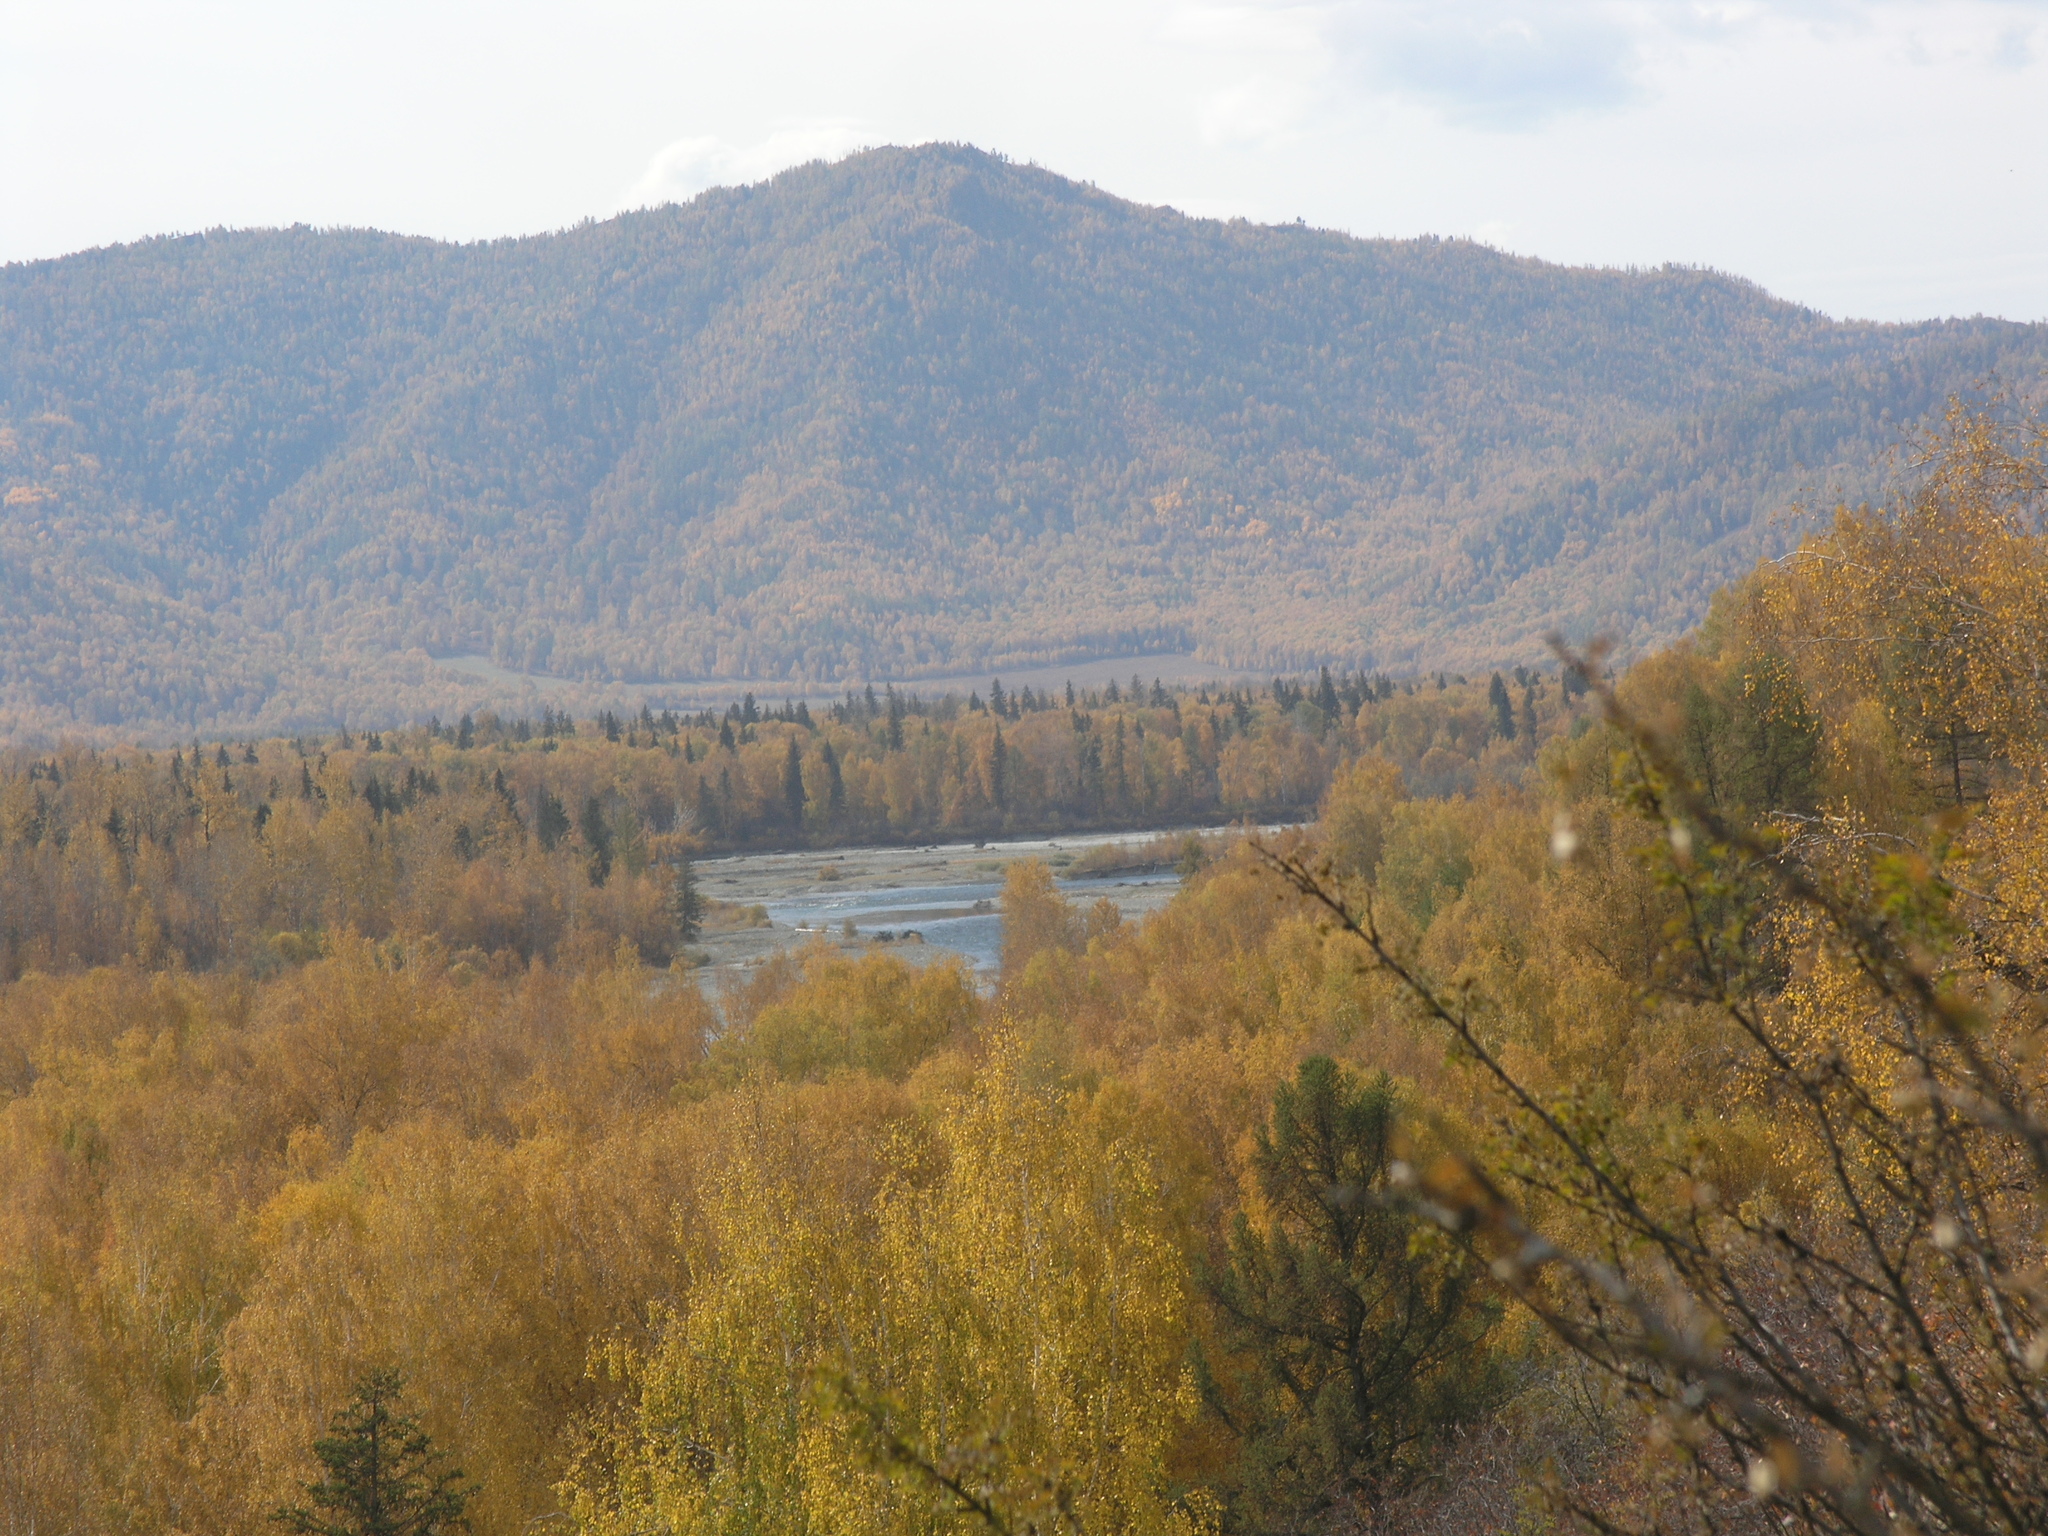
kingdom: Plantae
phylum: Tracheophyta
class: Magnoliopsida
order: Fabales
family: Fabaceae
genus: Caragana
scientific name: Caragana arborescens
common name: Siberian peashrub
